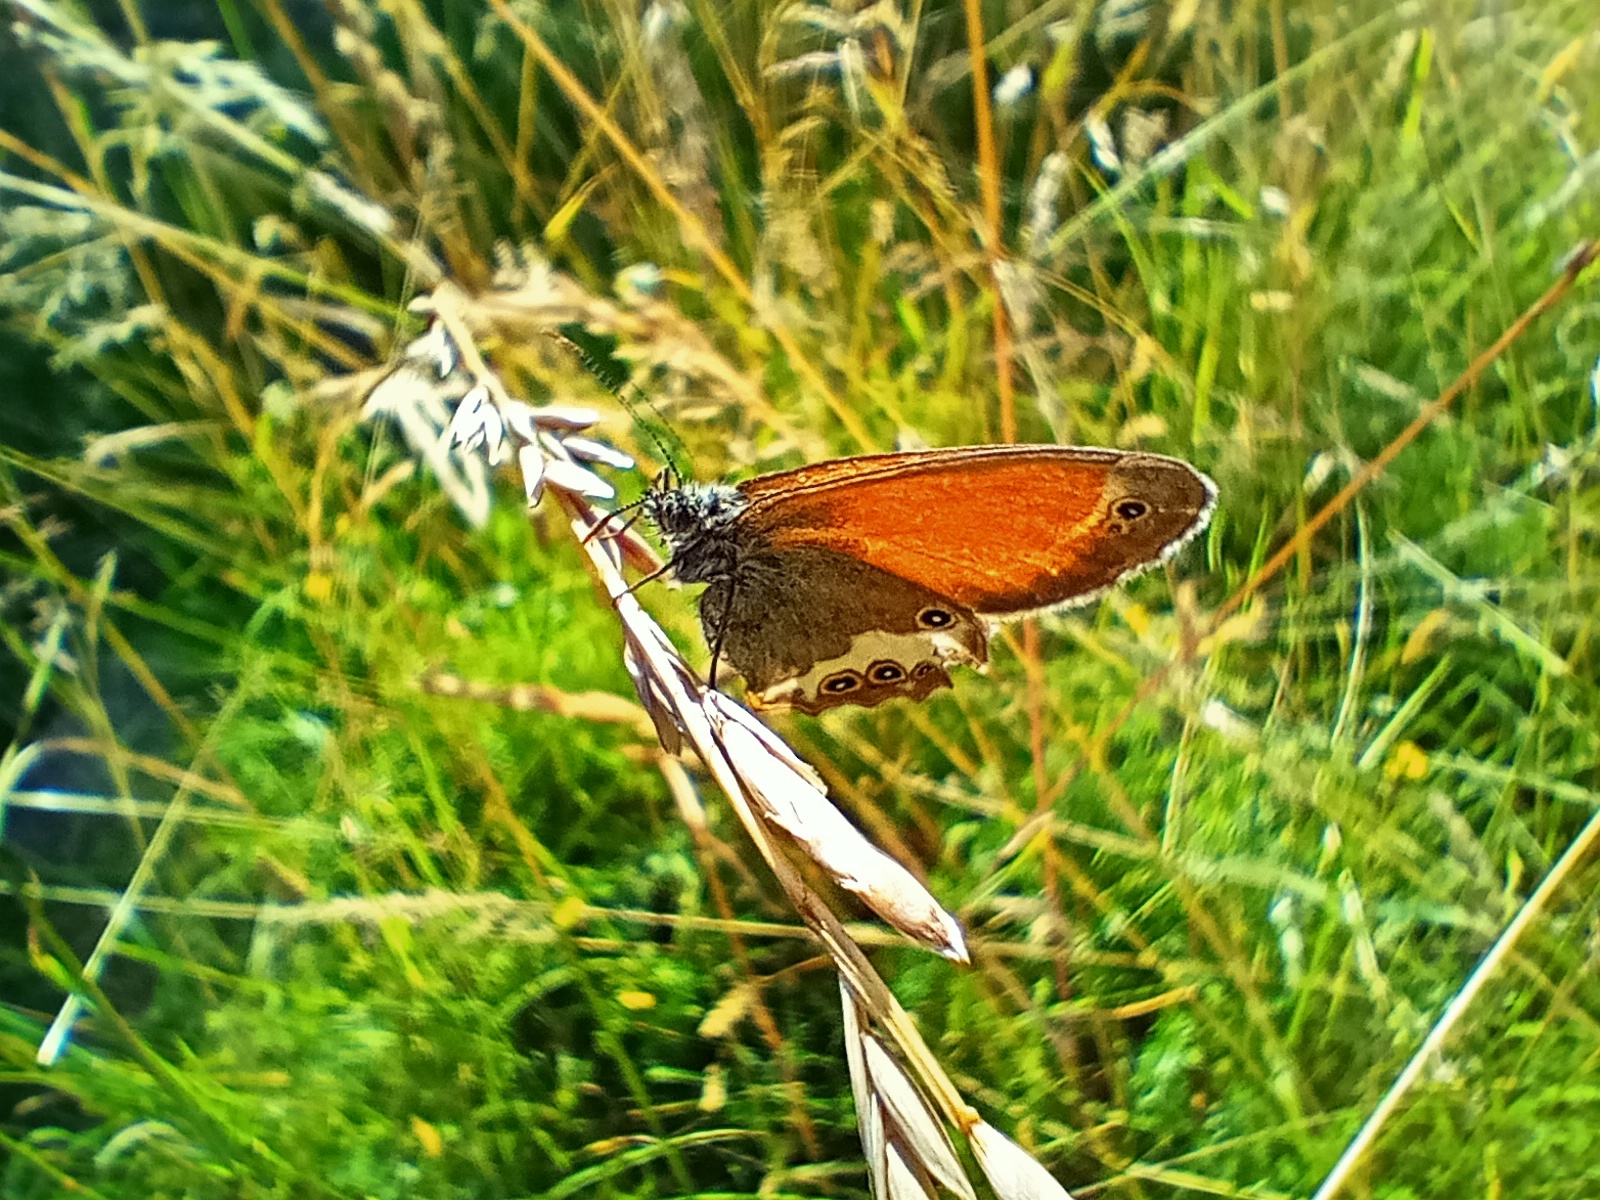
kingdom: Animalia
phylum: Arthropoda
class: Insecta
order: Lepidoptera
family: Nymphalidae
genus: Coenonympha
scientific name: Coenonympha arcania
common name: Pearly heath
